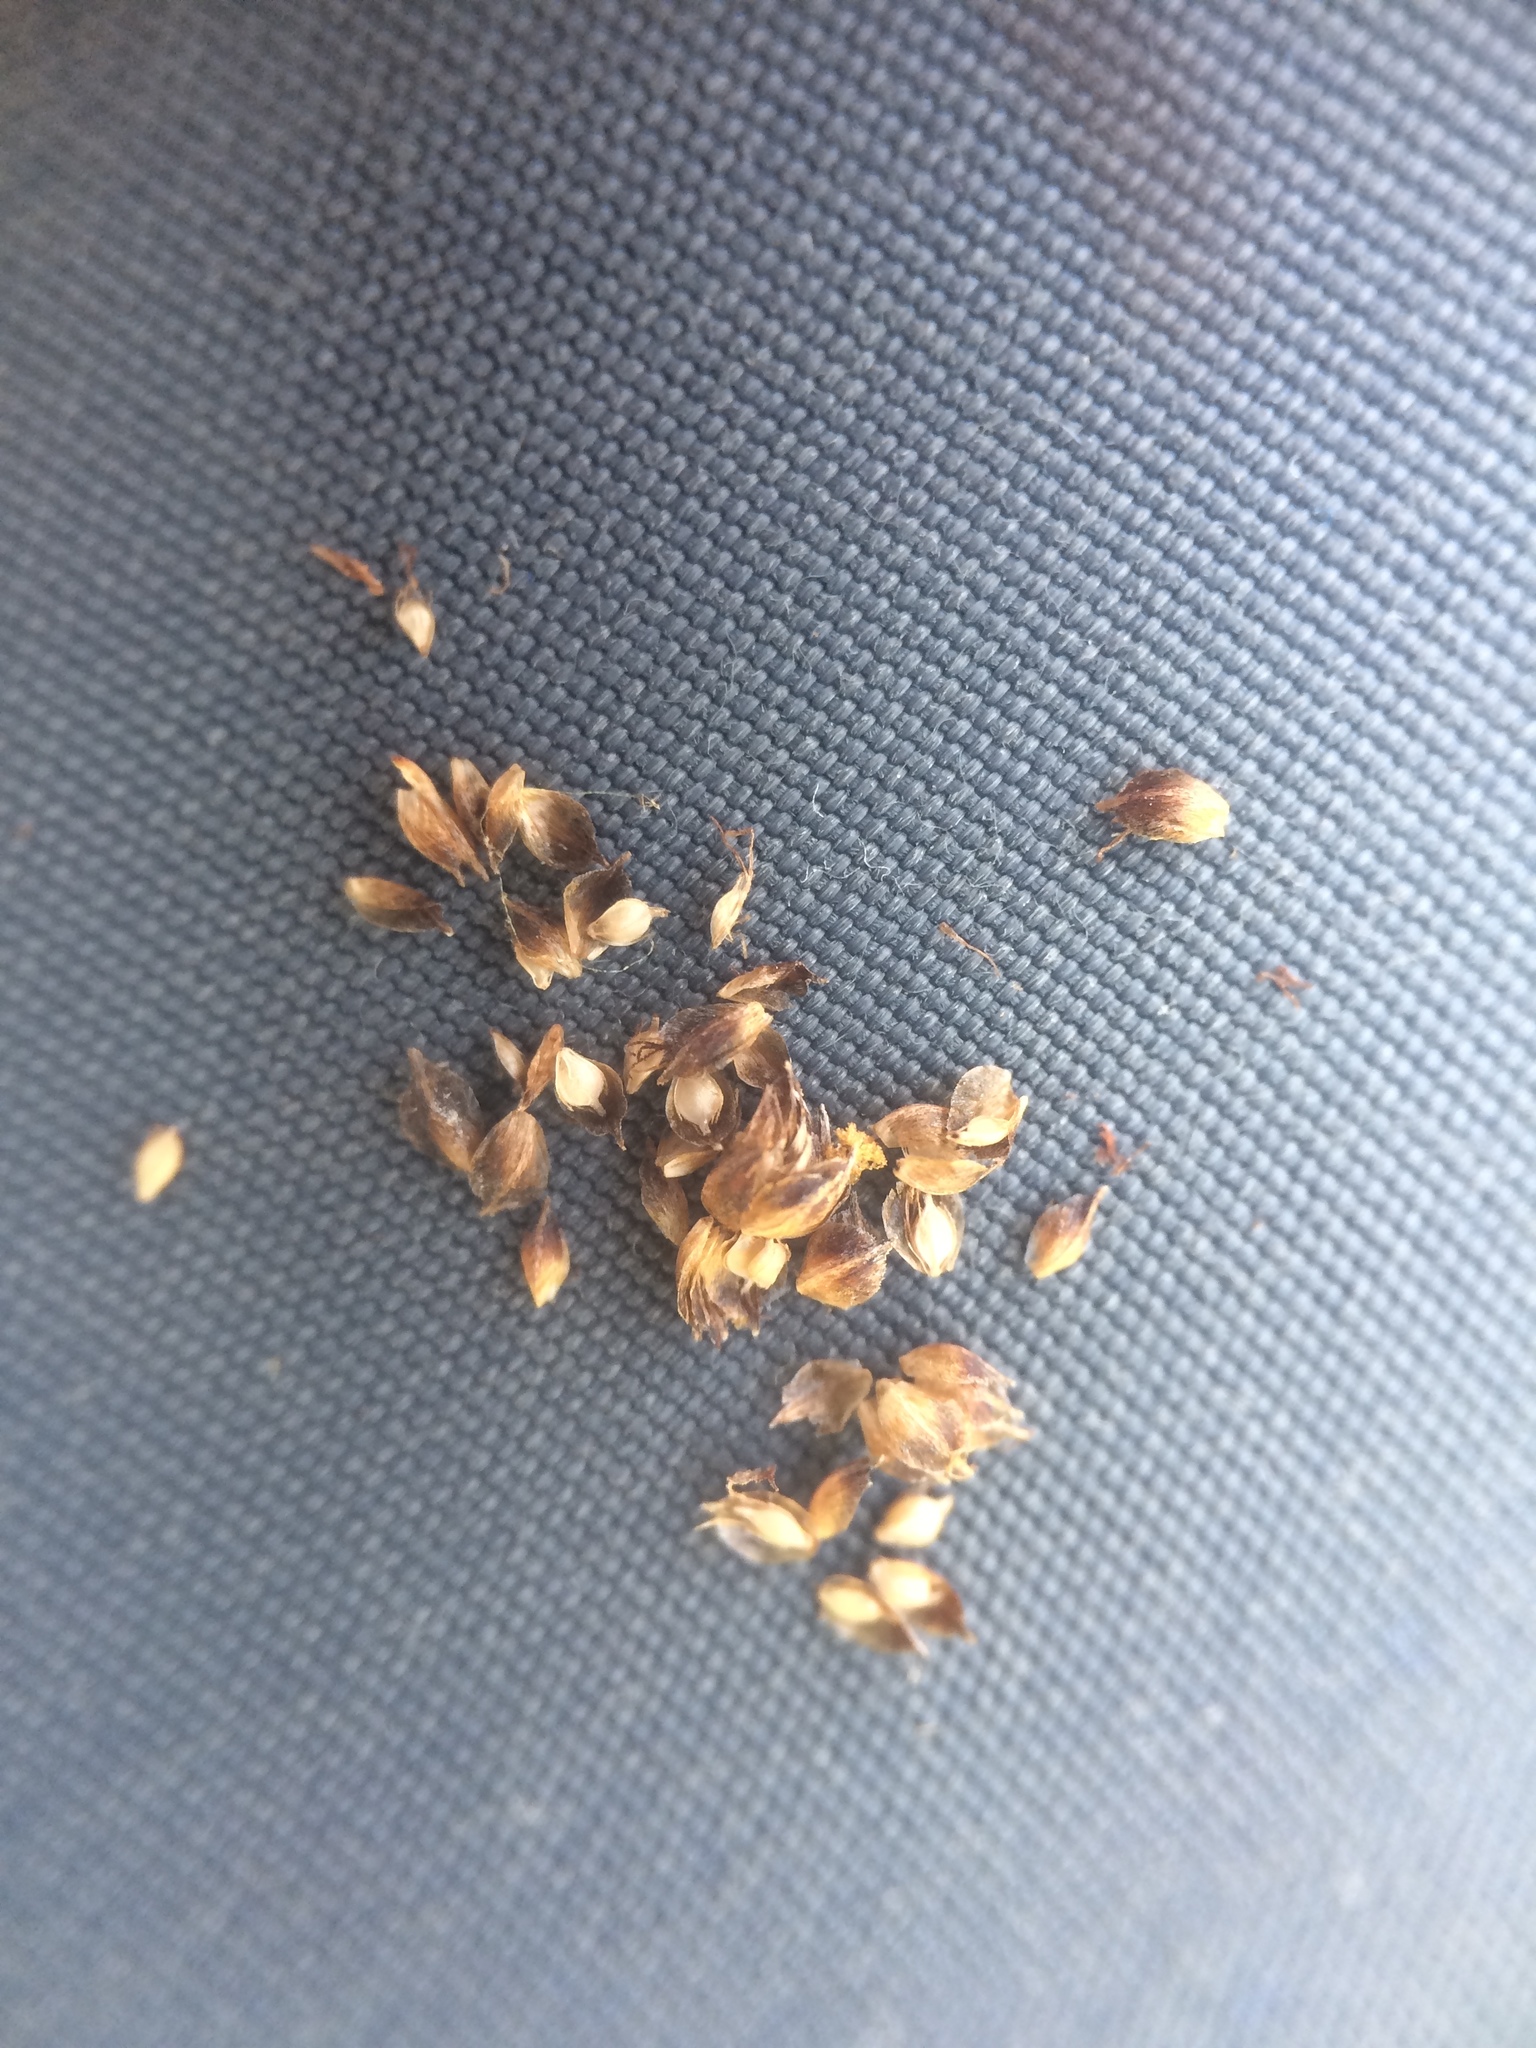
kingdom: Plantae
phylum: Tracheophyta
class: Liliopsida
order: Poales
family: Cyperaceae
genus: Scirpus
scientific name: Scirpus atrovirens
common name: Black bulrush
